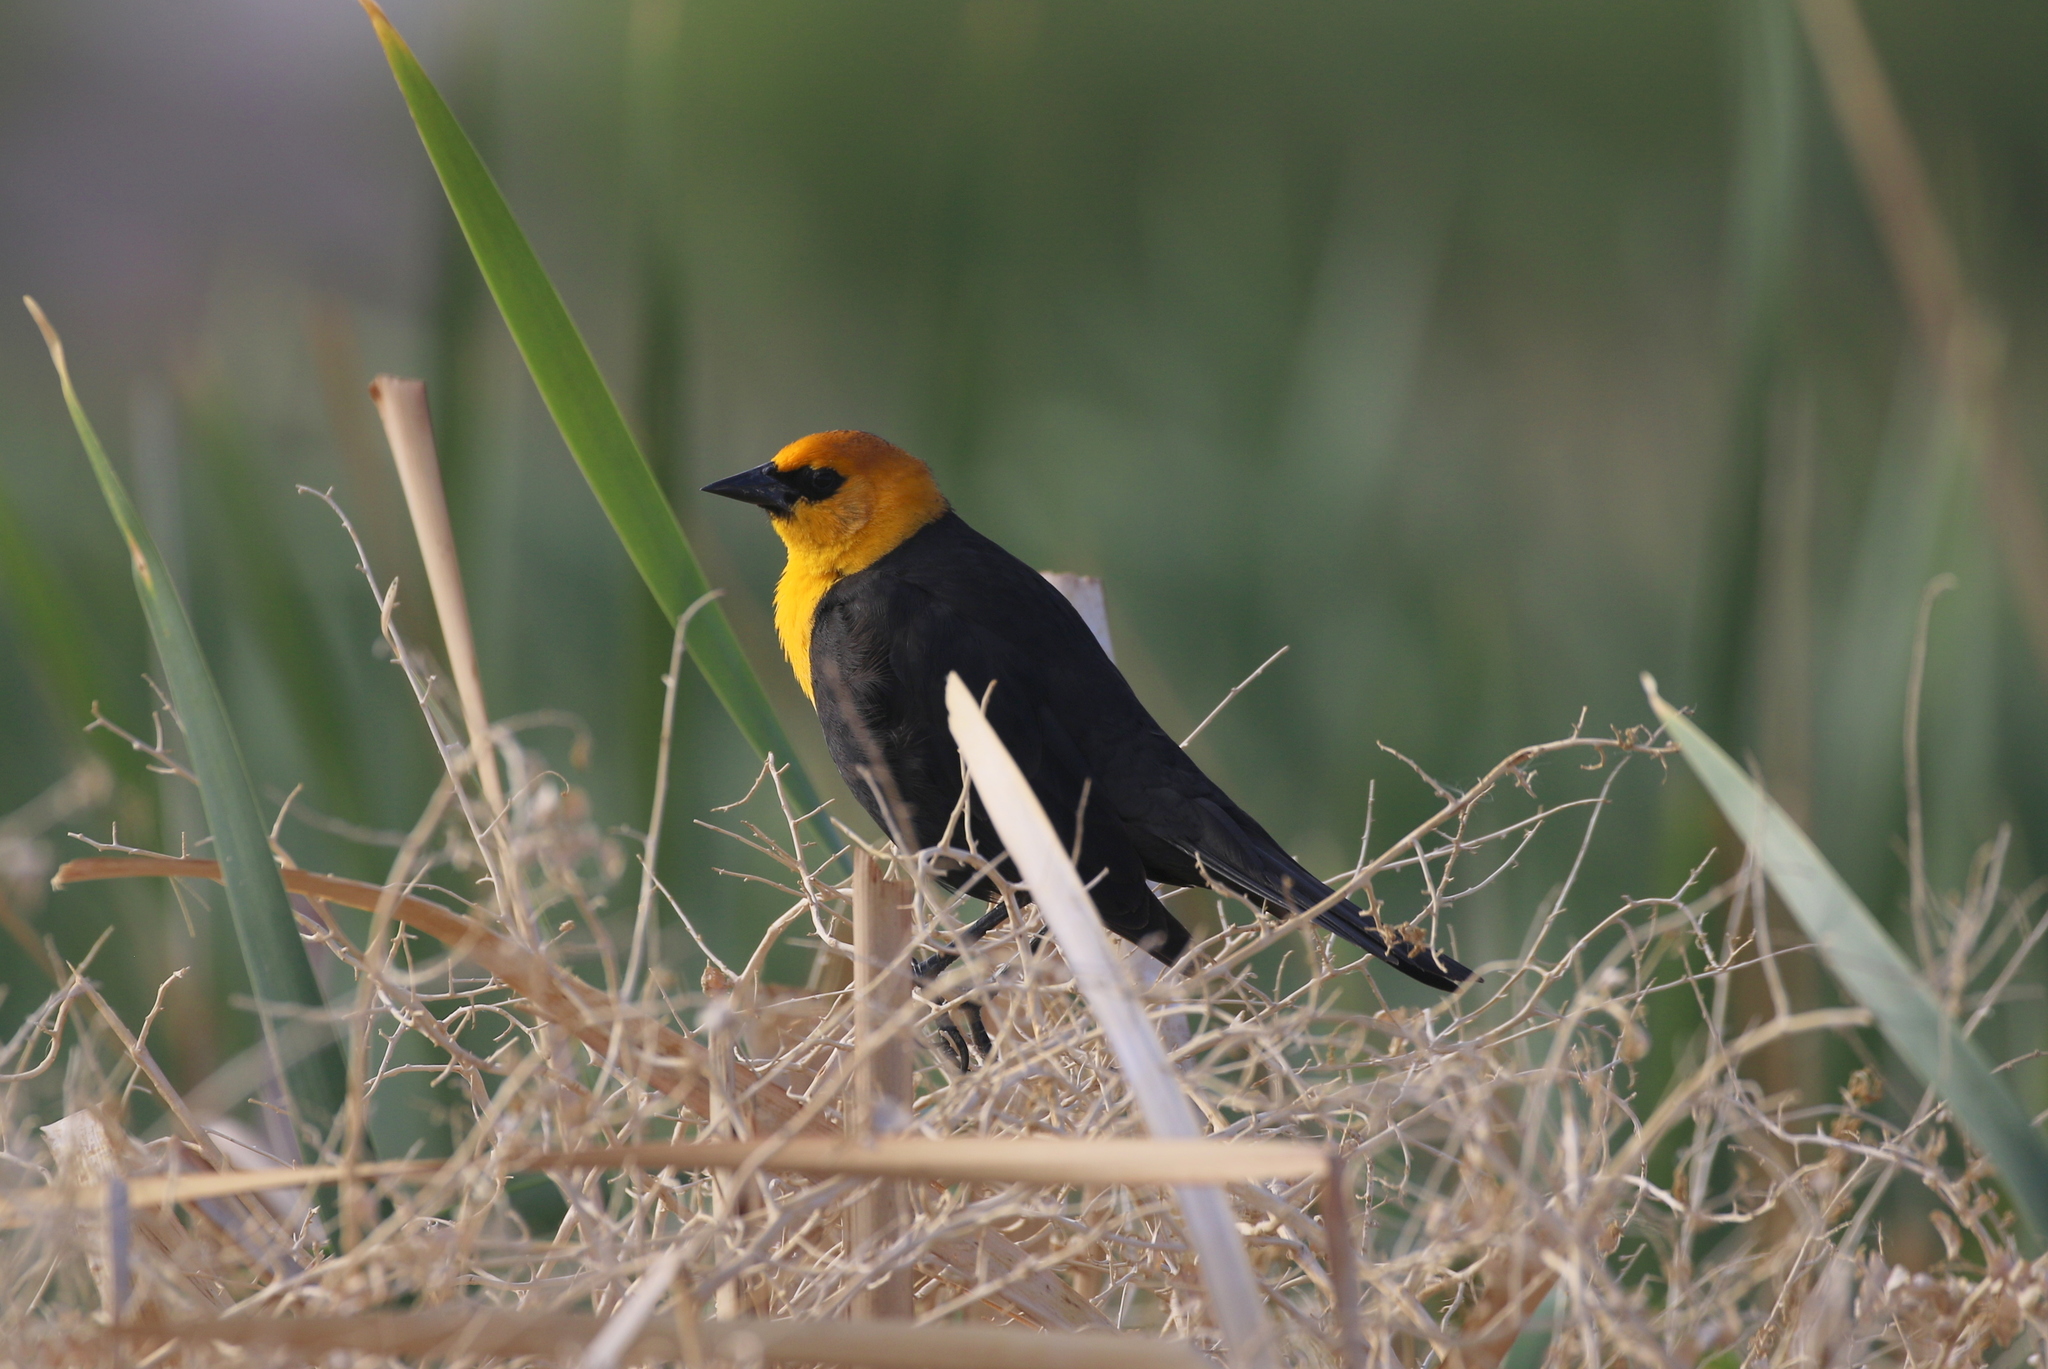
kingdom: Animalia
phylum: Chordata
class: Aves
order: Passeriformes
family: Icteridae
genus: Xanthocephalus
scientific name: Xanthocephalus xanthocephalus
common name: Yellow-headed blackbird
